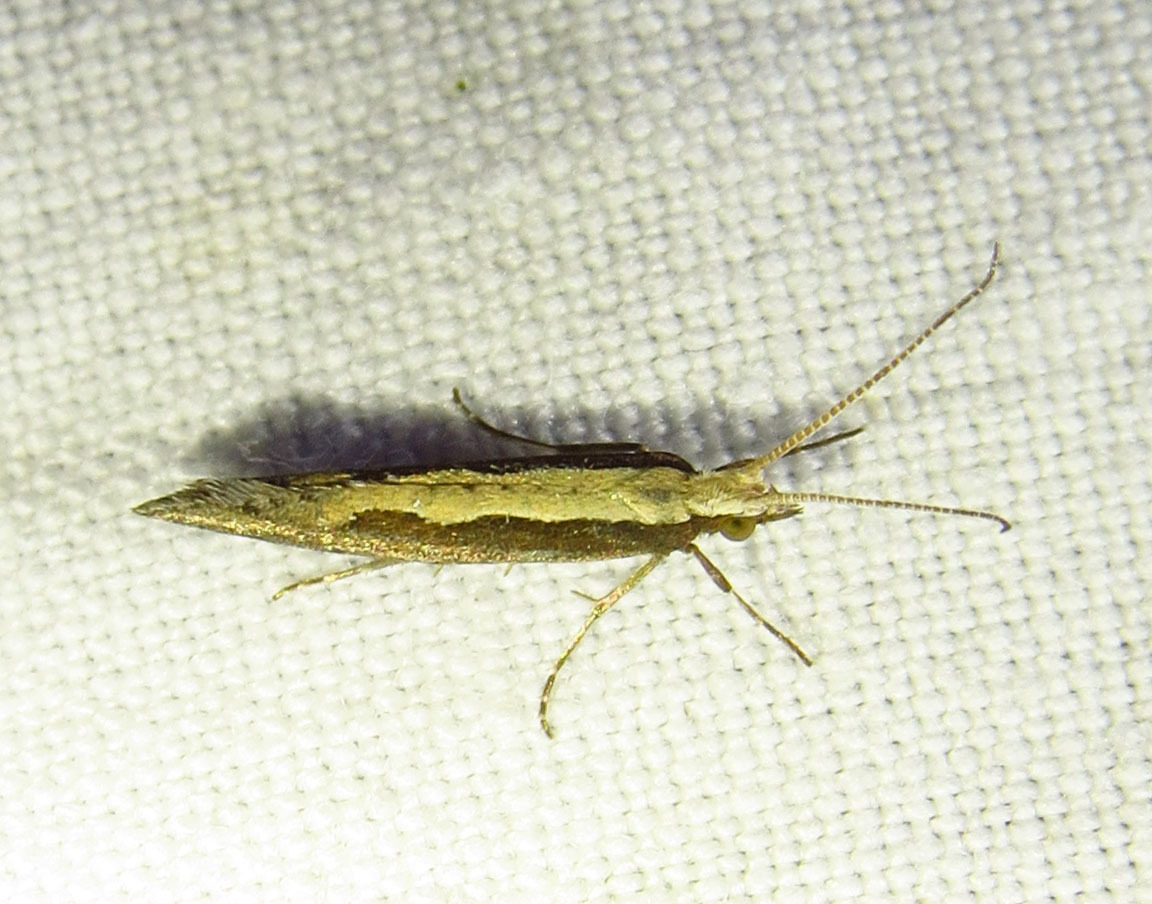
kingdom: Animalia
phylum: Arthropoda
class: Insecta
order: Lepidoptera
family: Plutellidae
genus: Plutella
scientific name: Plutella xylostella
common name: Diamond-back moth
